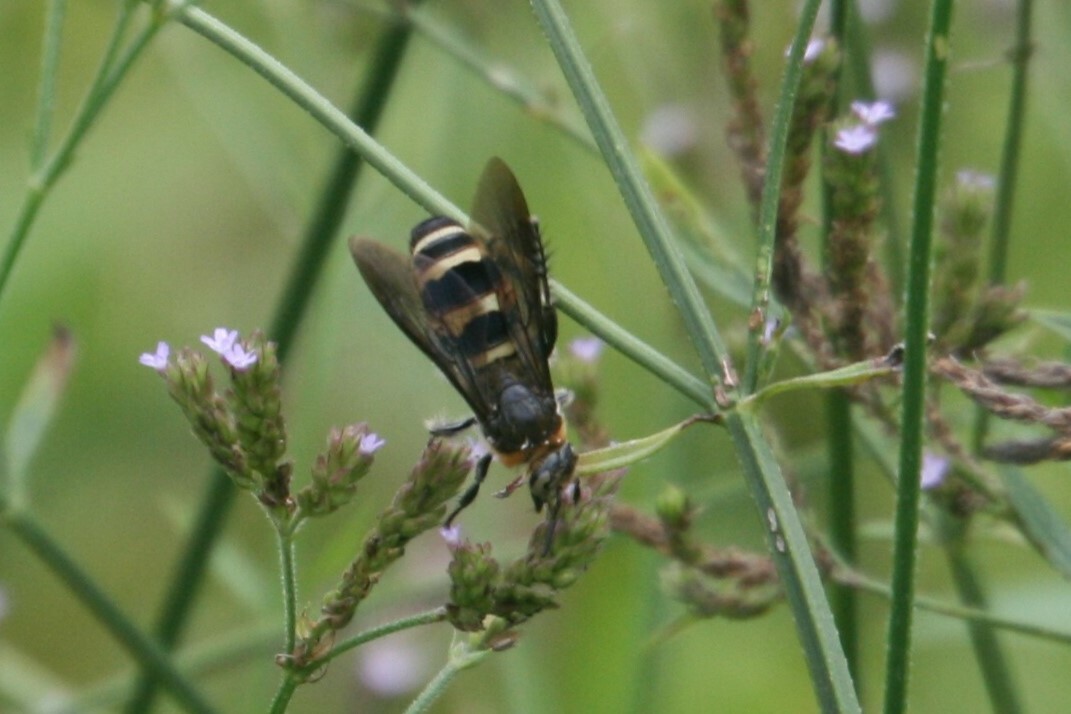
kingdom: Animalia
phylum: Arthropoda
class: Insecta
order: Hymenoptera
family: Scoliidae
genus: Dielis
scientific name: Dielis
